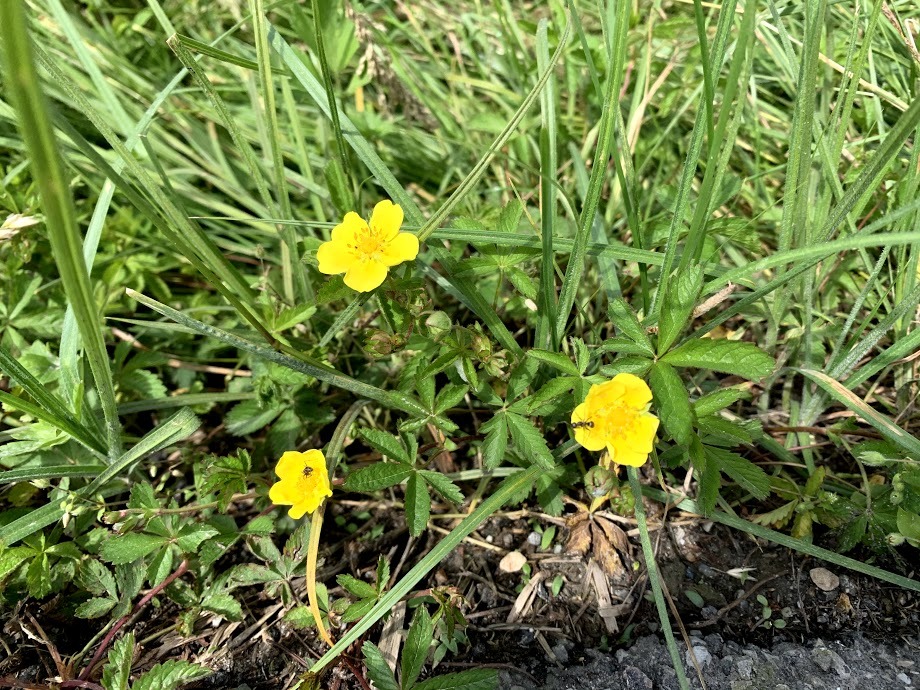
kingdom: Plantae
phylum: Tracheophyta
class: Magnoliopsida
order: Rosales
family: Rosaceae
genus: Potentilla
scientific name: Potentilla reptans
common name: Creeping cinquefoil
